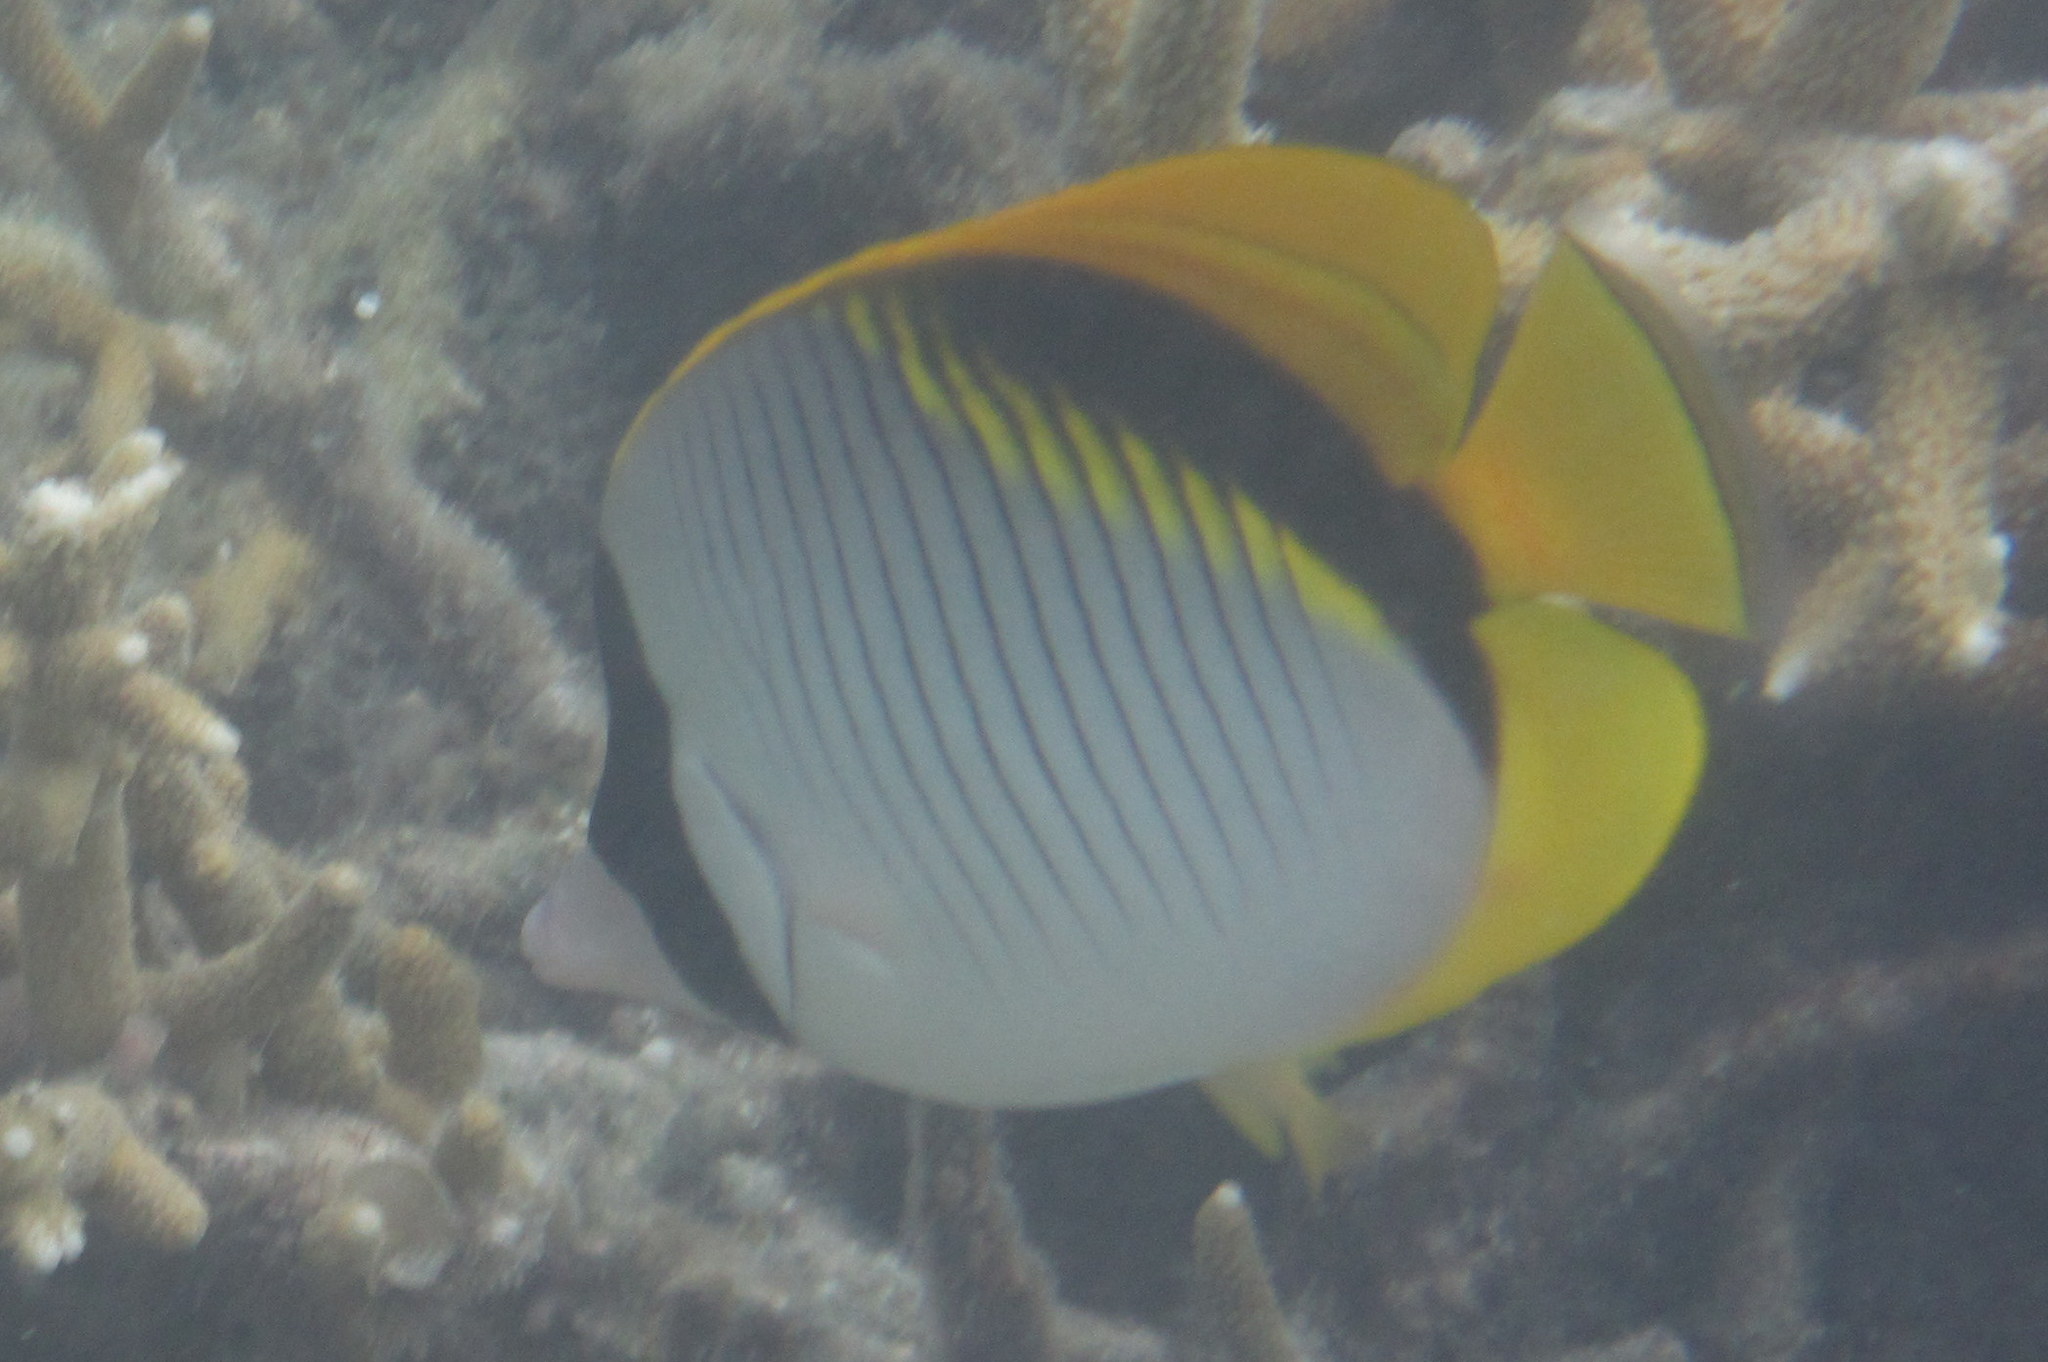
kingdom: Animalia
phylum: Chordata
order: Perciformes
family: Chaetodontidae
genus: Chaetodon
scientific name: Chaetodon lineolatus
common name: Lined butterflyfish
